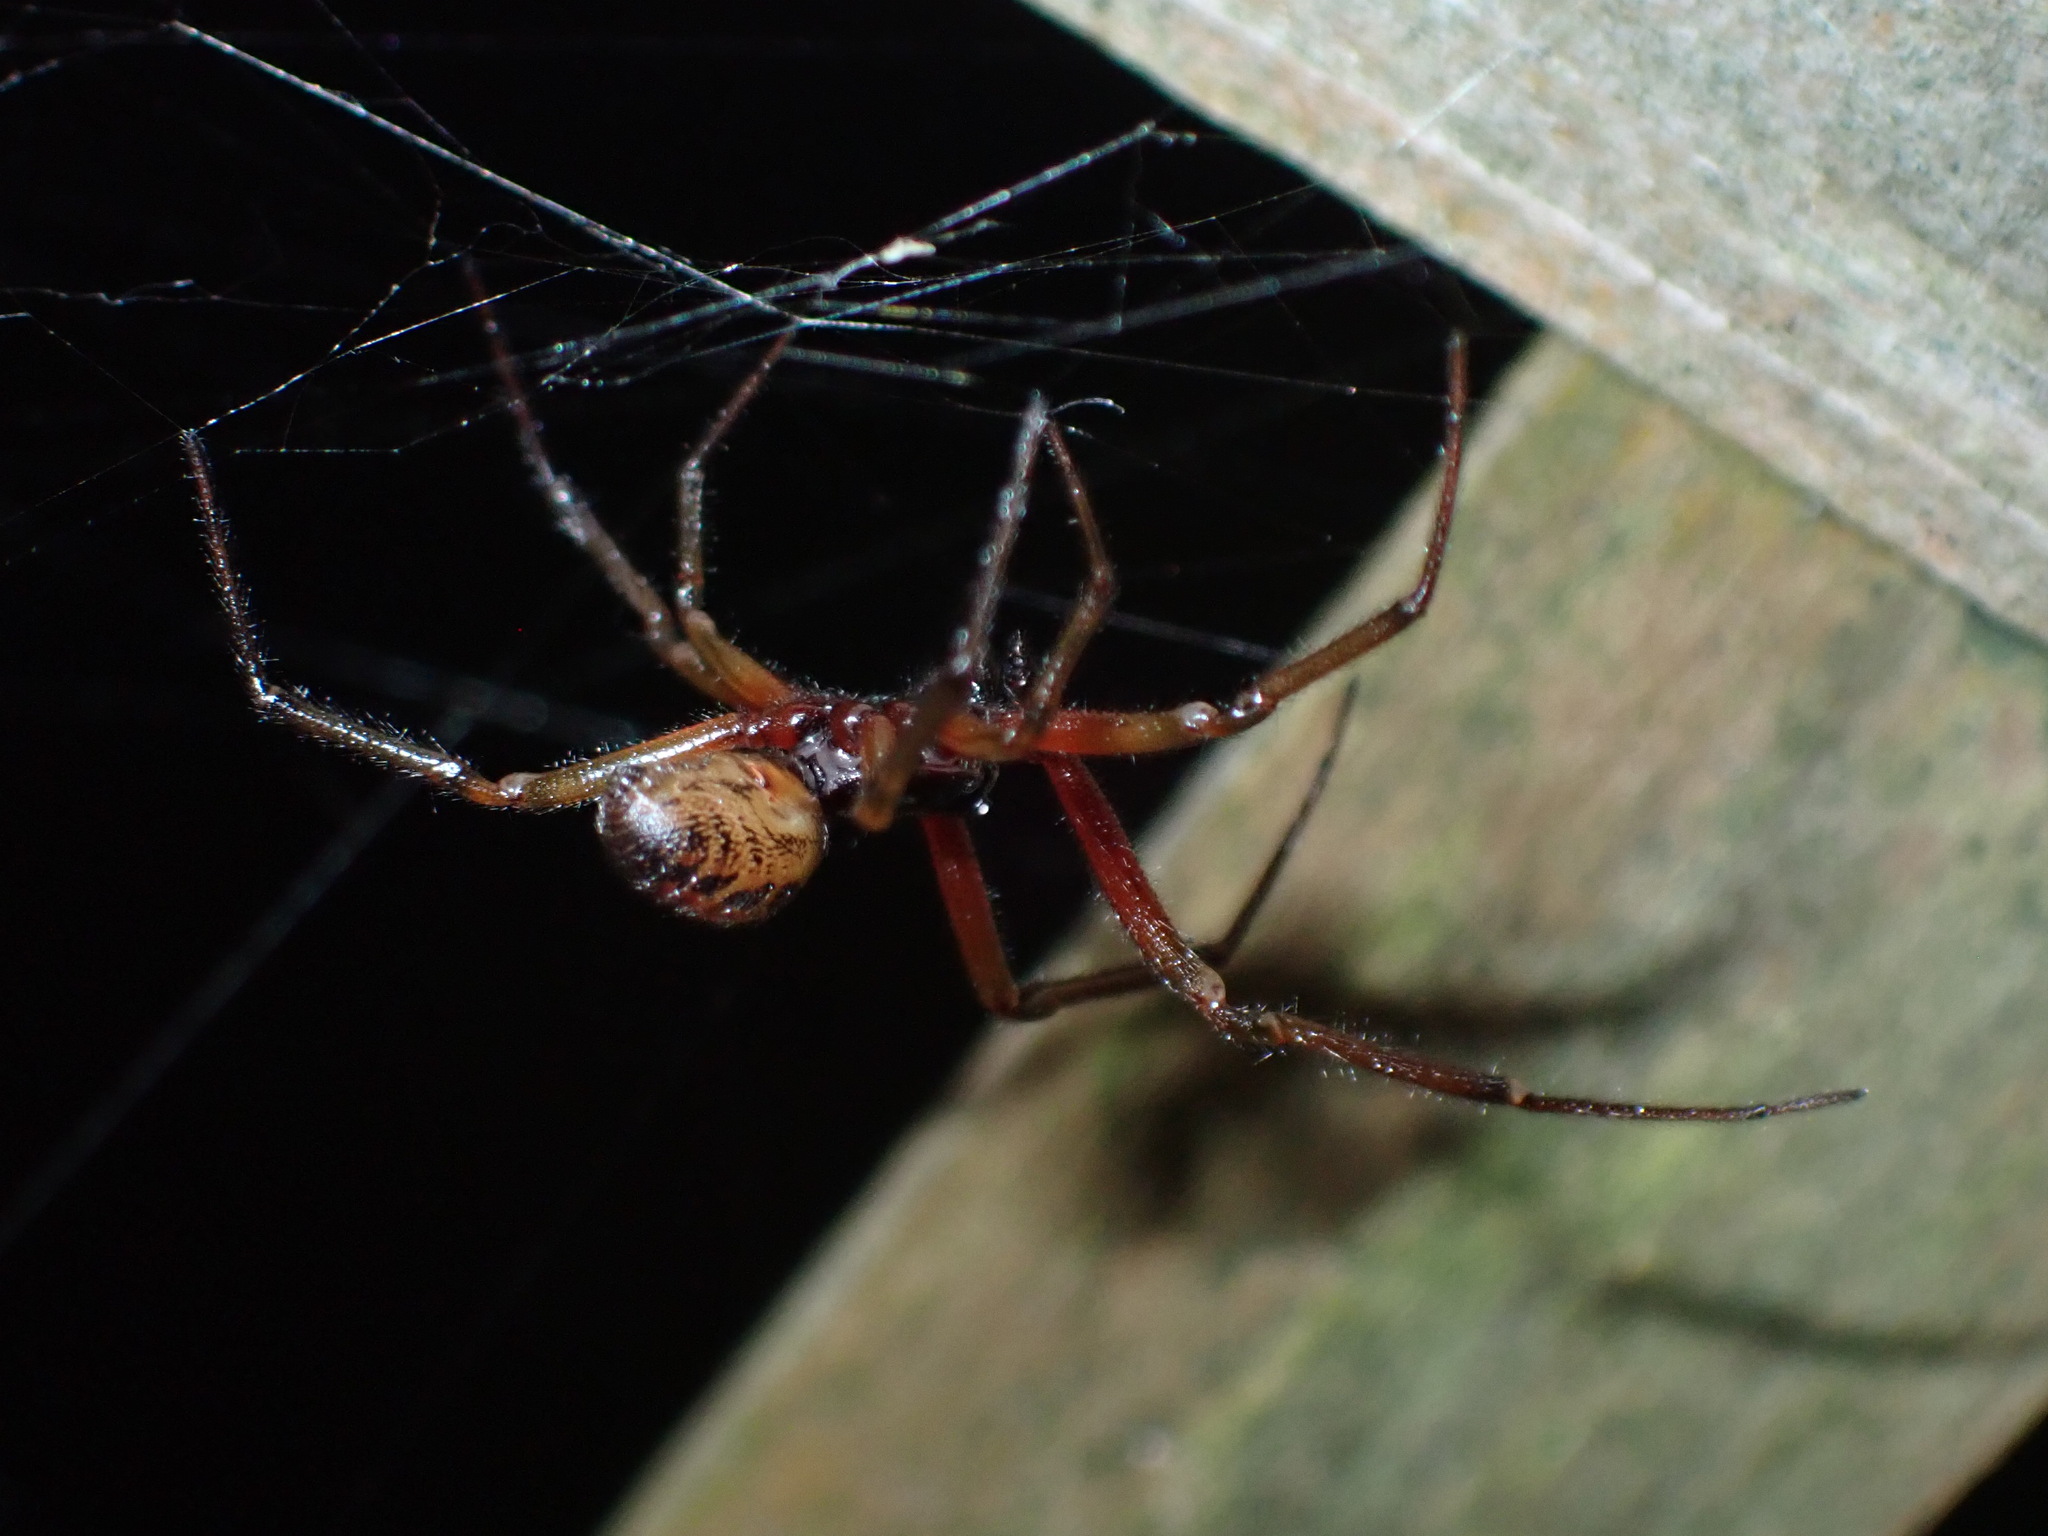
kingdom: Animalia
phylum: Arthropoda
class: Arachnida
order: Araneae
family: Theridiidae
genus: Steatoda
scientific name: Steatoda nobilis
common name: Cobweb weaver
